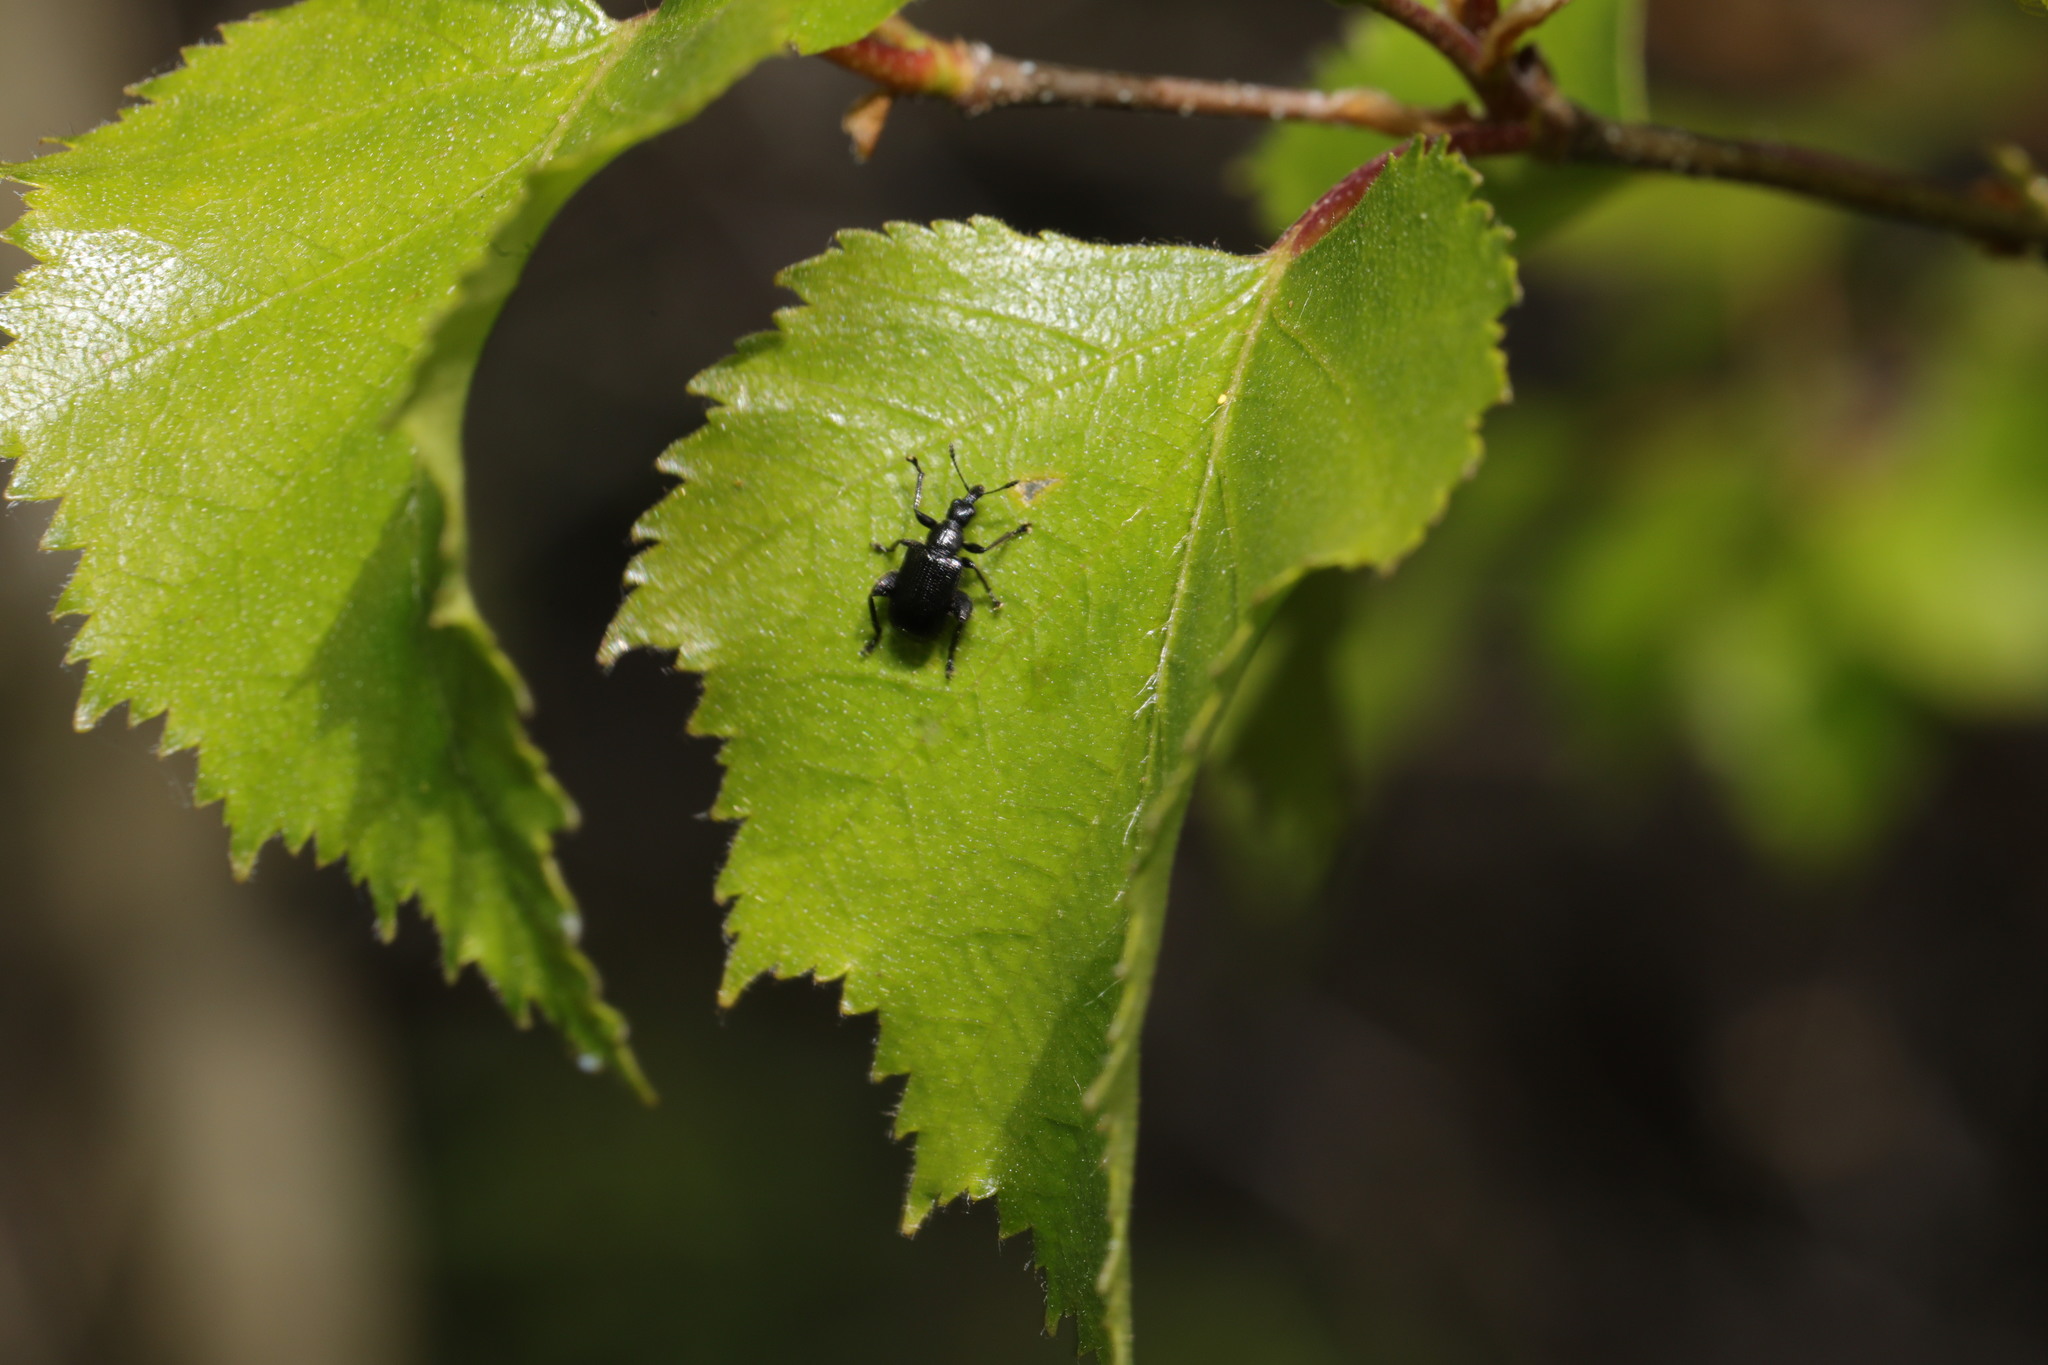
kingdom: Animalia
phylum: Arthropoda
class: Insecta
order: Coleoptera
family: Attelabidae
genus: Deporaus
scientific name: Deporaus betulae
